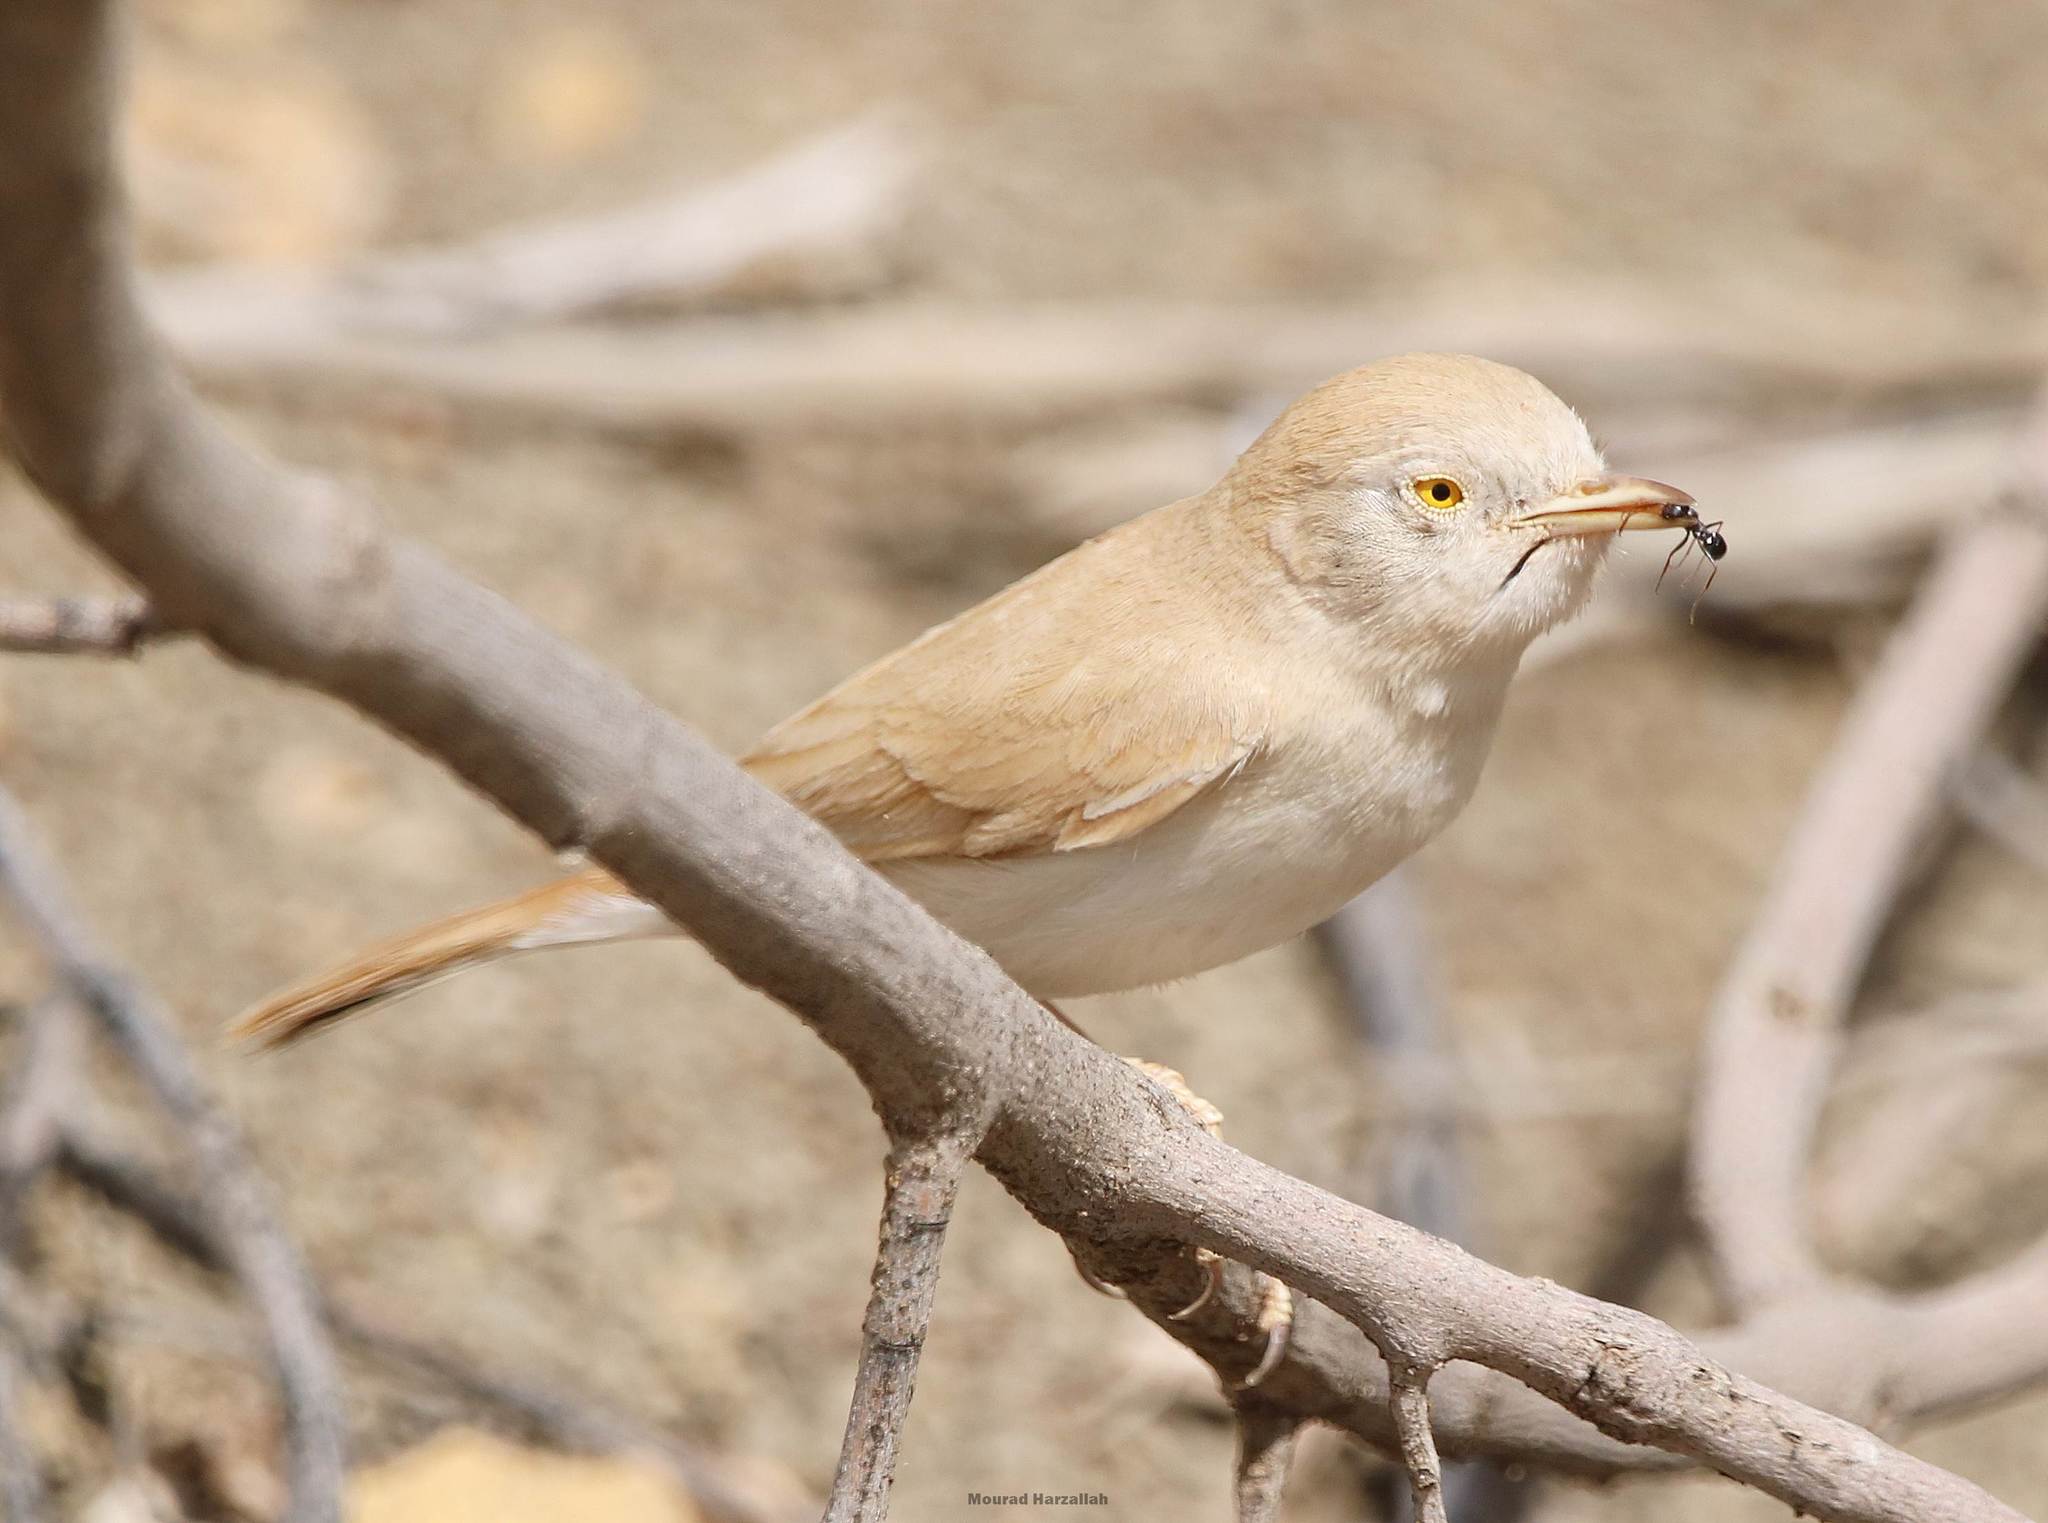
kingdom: Animalia
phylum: Chordata
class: Aves
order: Passeriformes
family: Sylviidae
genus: Sylvia
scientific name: Sylvia deserti
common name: African desert warbler
